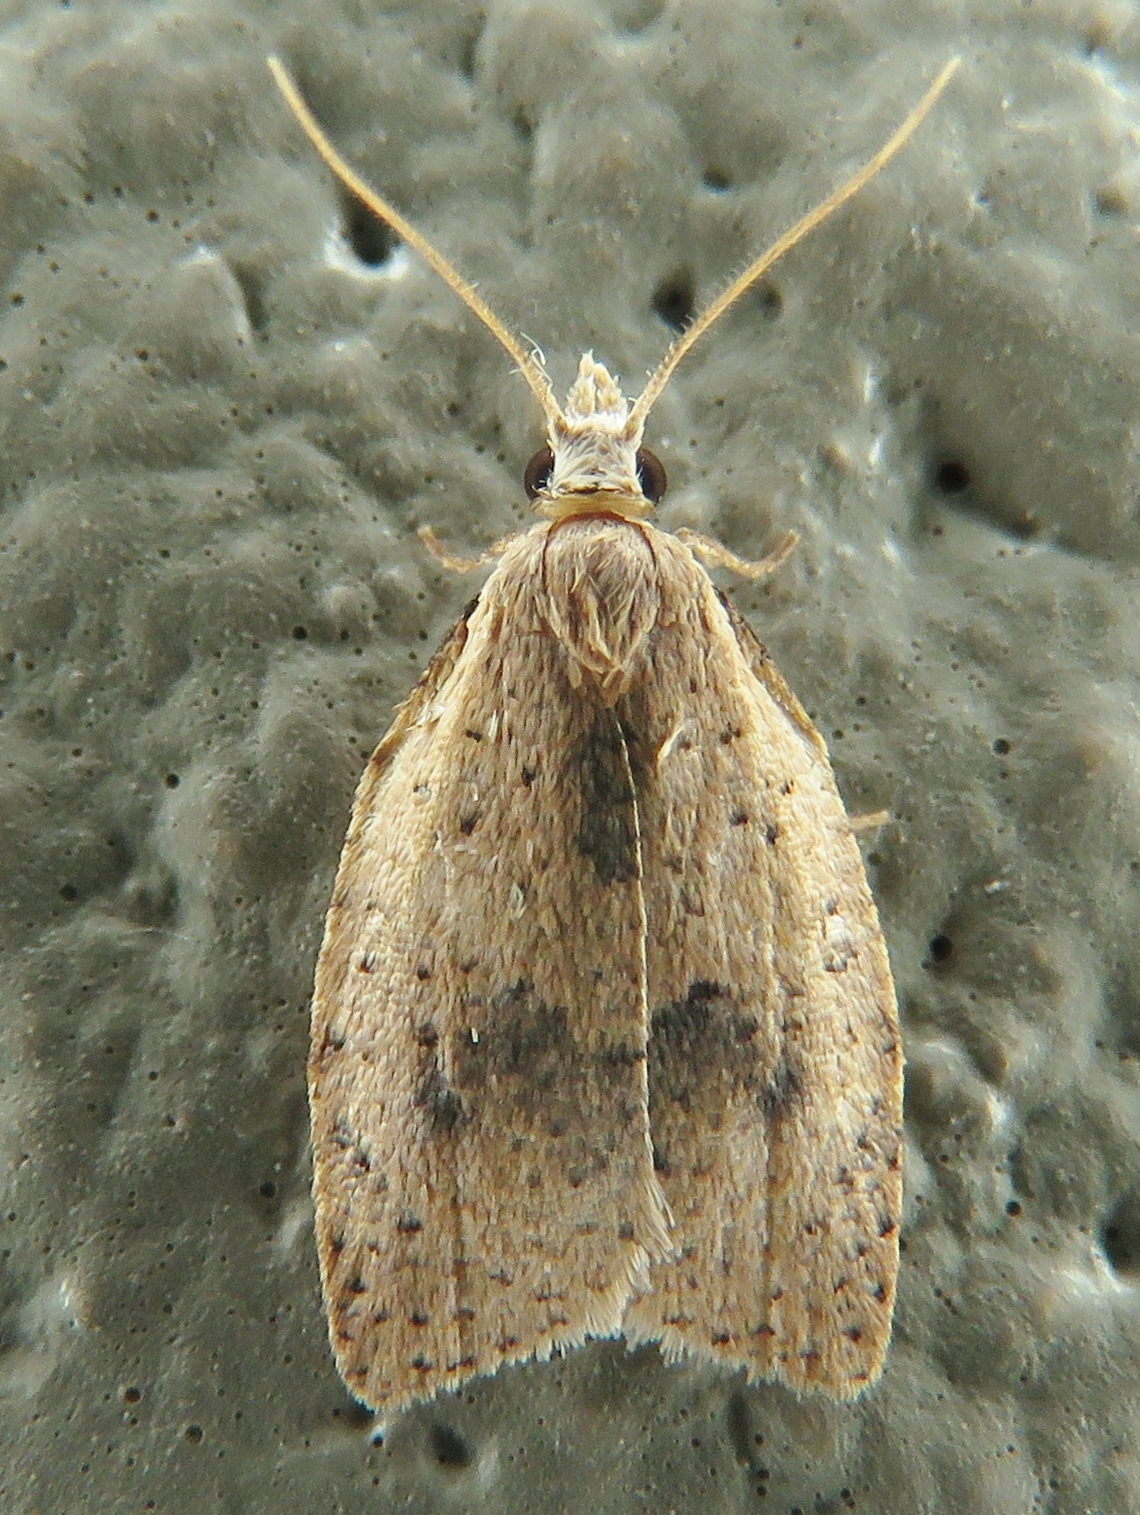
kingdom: Animalia
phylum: Arthropoda
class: Insecta
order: Lepidoptera
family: Tortricidae
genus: Sparganothoides
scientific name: Sparganothoides lentiginosana
